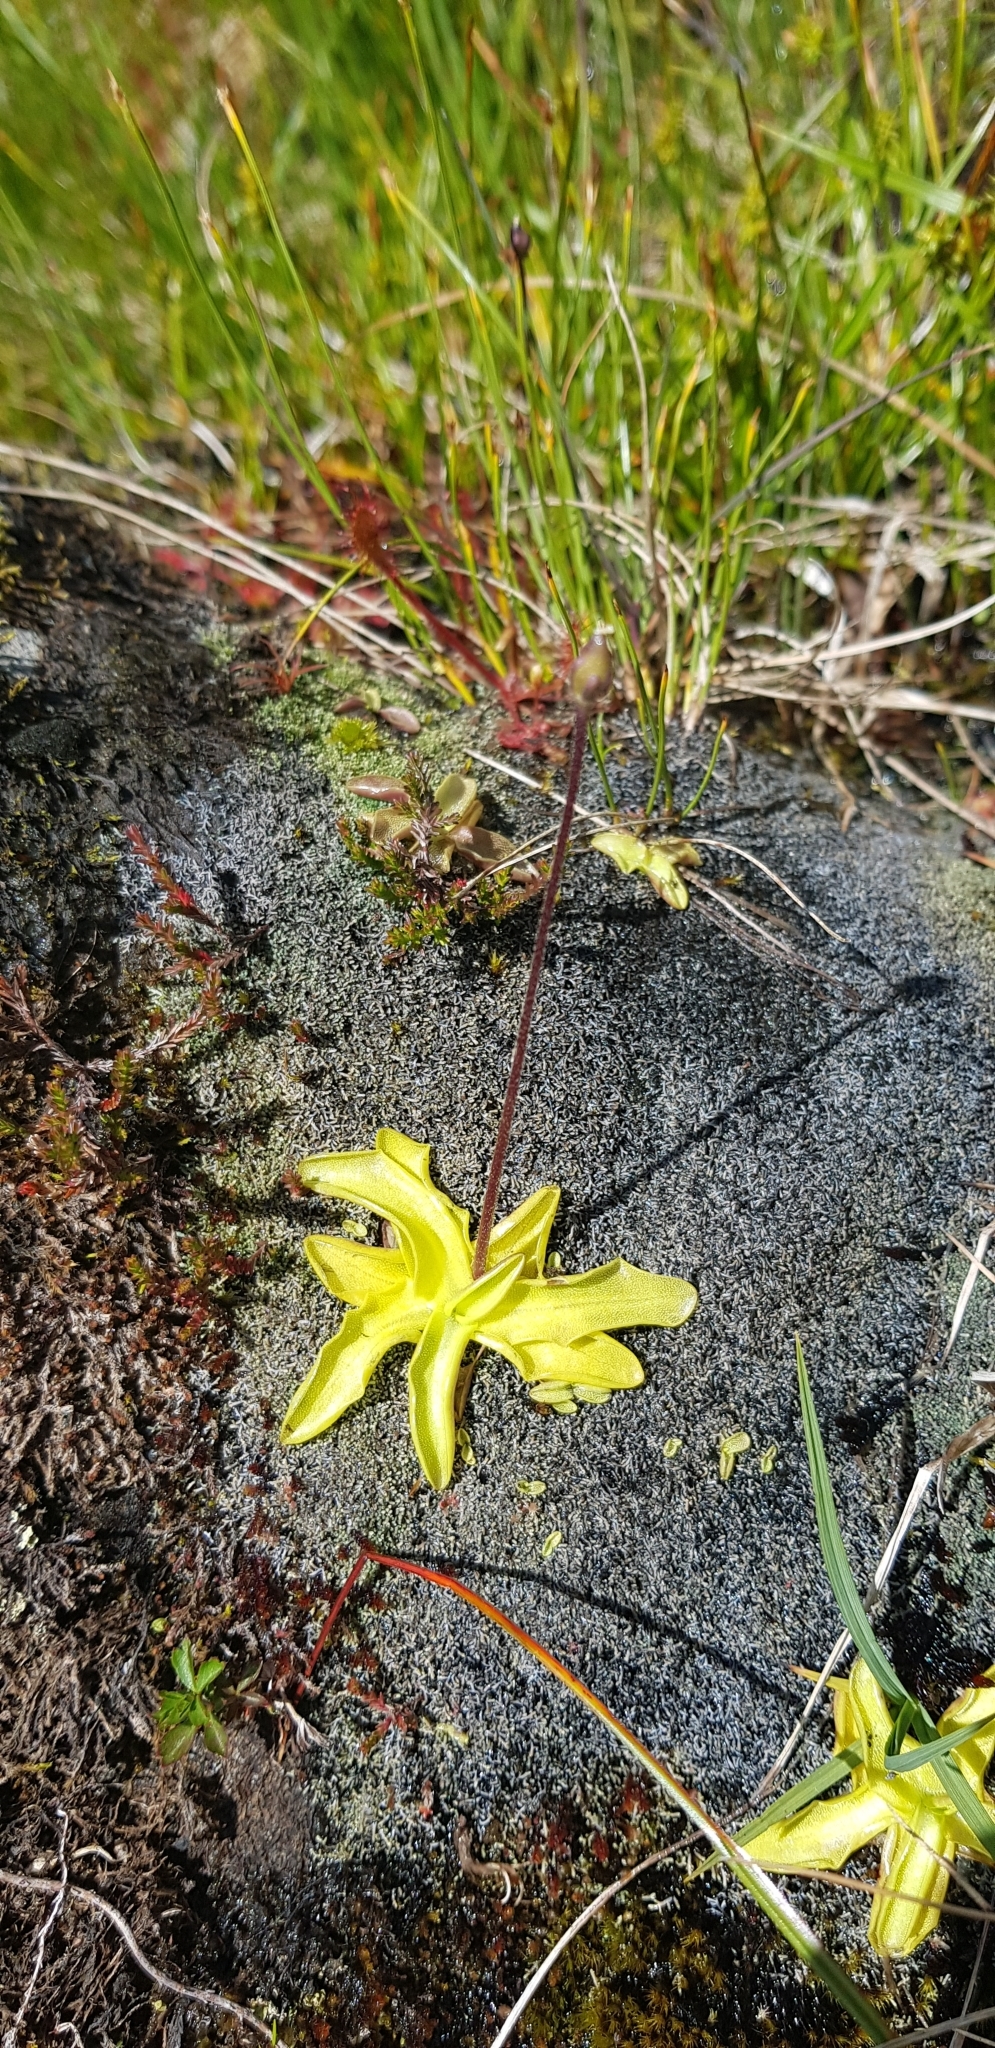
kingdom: Plantae
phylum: Tracheophyta
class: Magnoliopsida
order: Lamiales
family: Lentibulariaceae
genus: Pinguicula
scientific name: Pinguicula vulgaris
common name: Common butterwort
